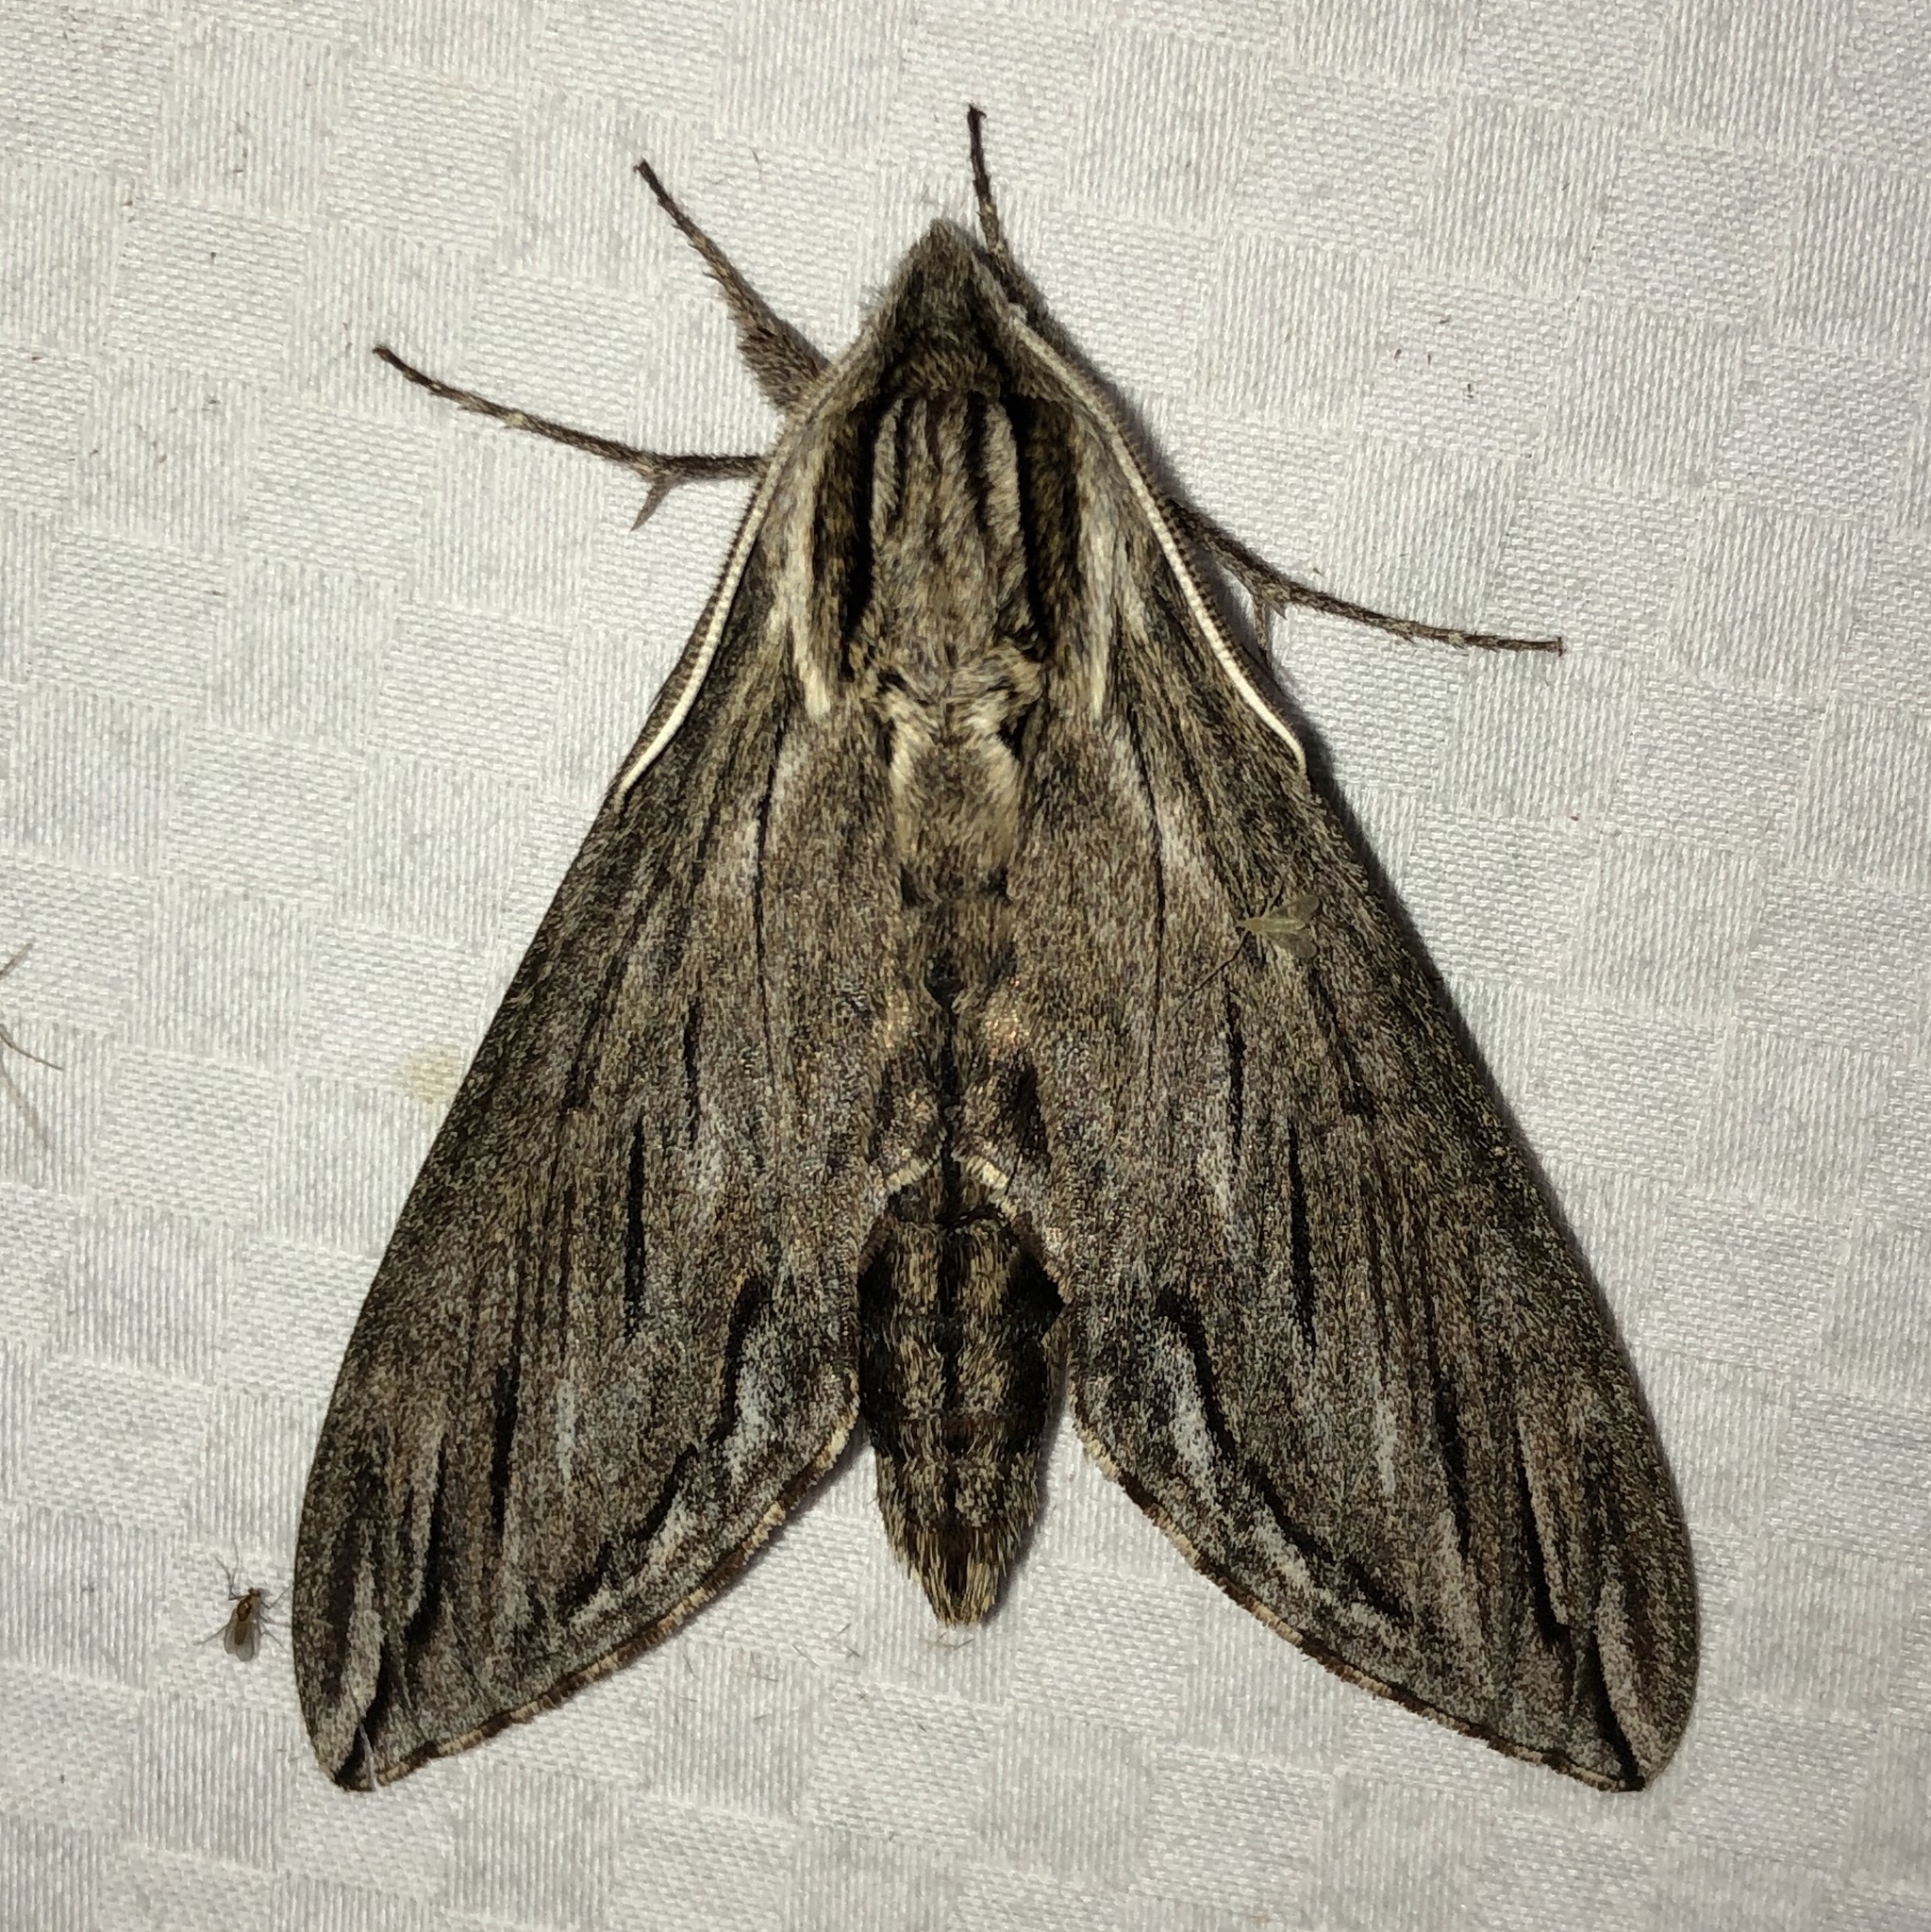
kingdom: Animalia
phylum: Arthropoda
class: Insecta
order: Lepidoptera
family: Sphingidae
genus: Sphinx
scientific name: Sphinx canadensis
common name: Canadian sphinx
